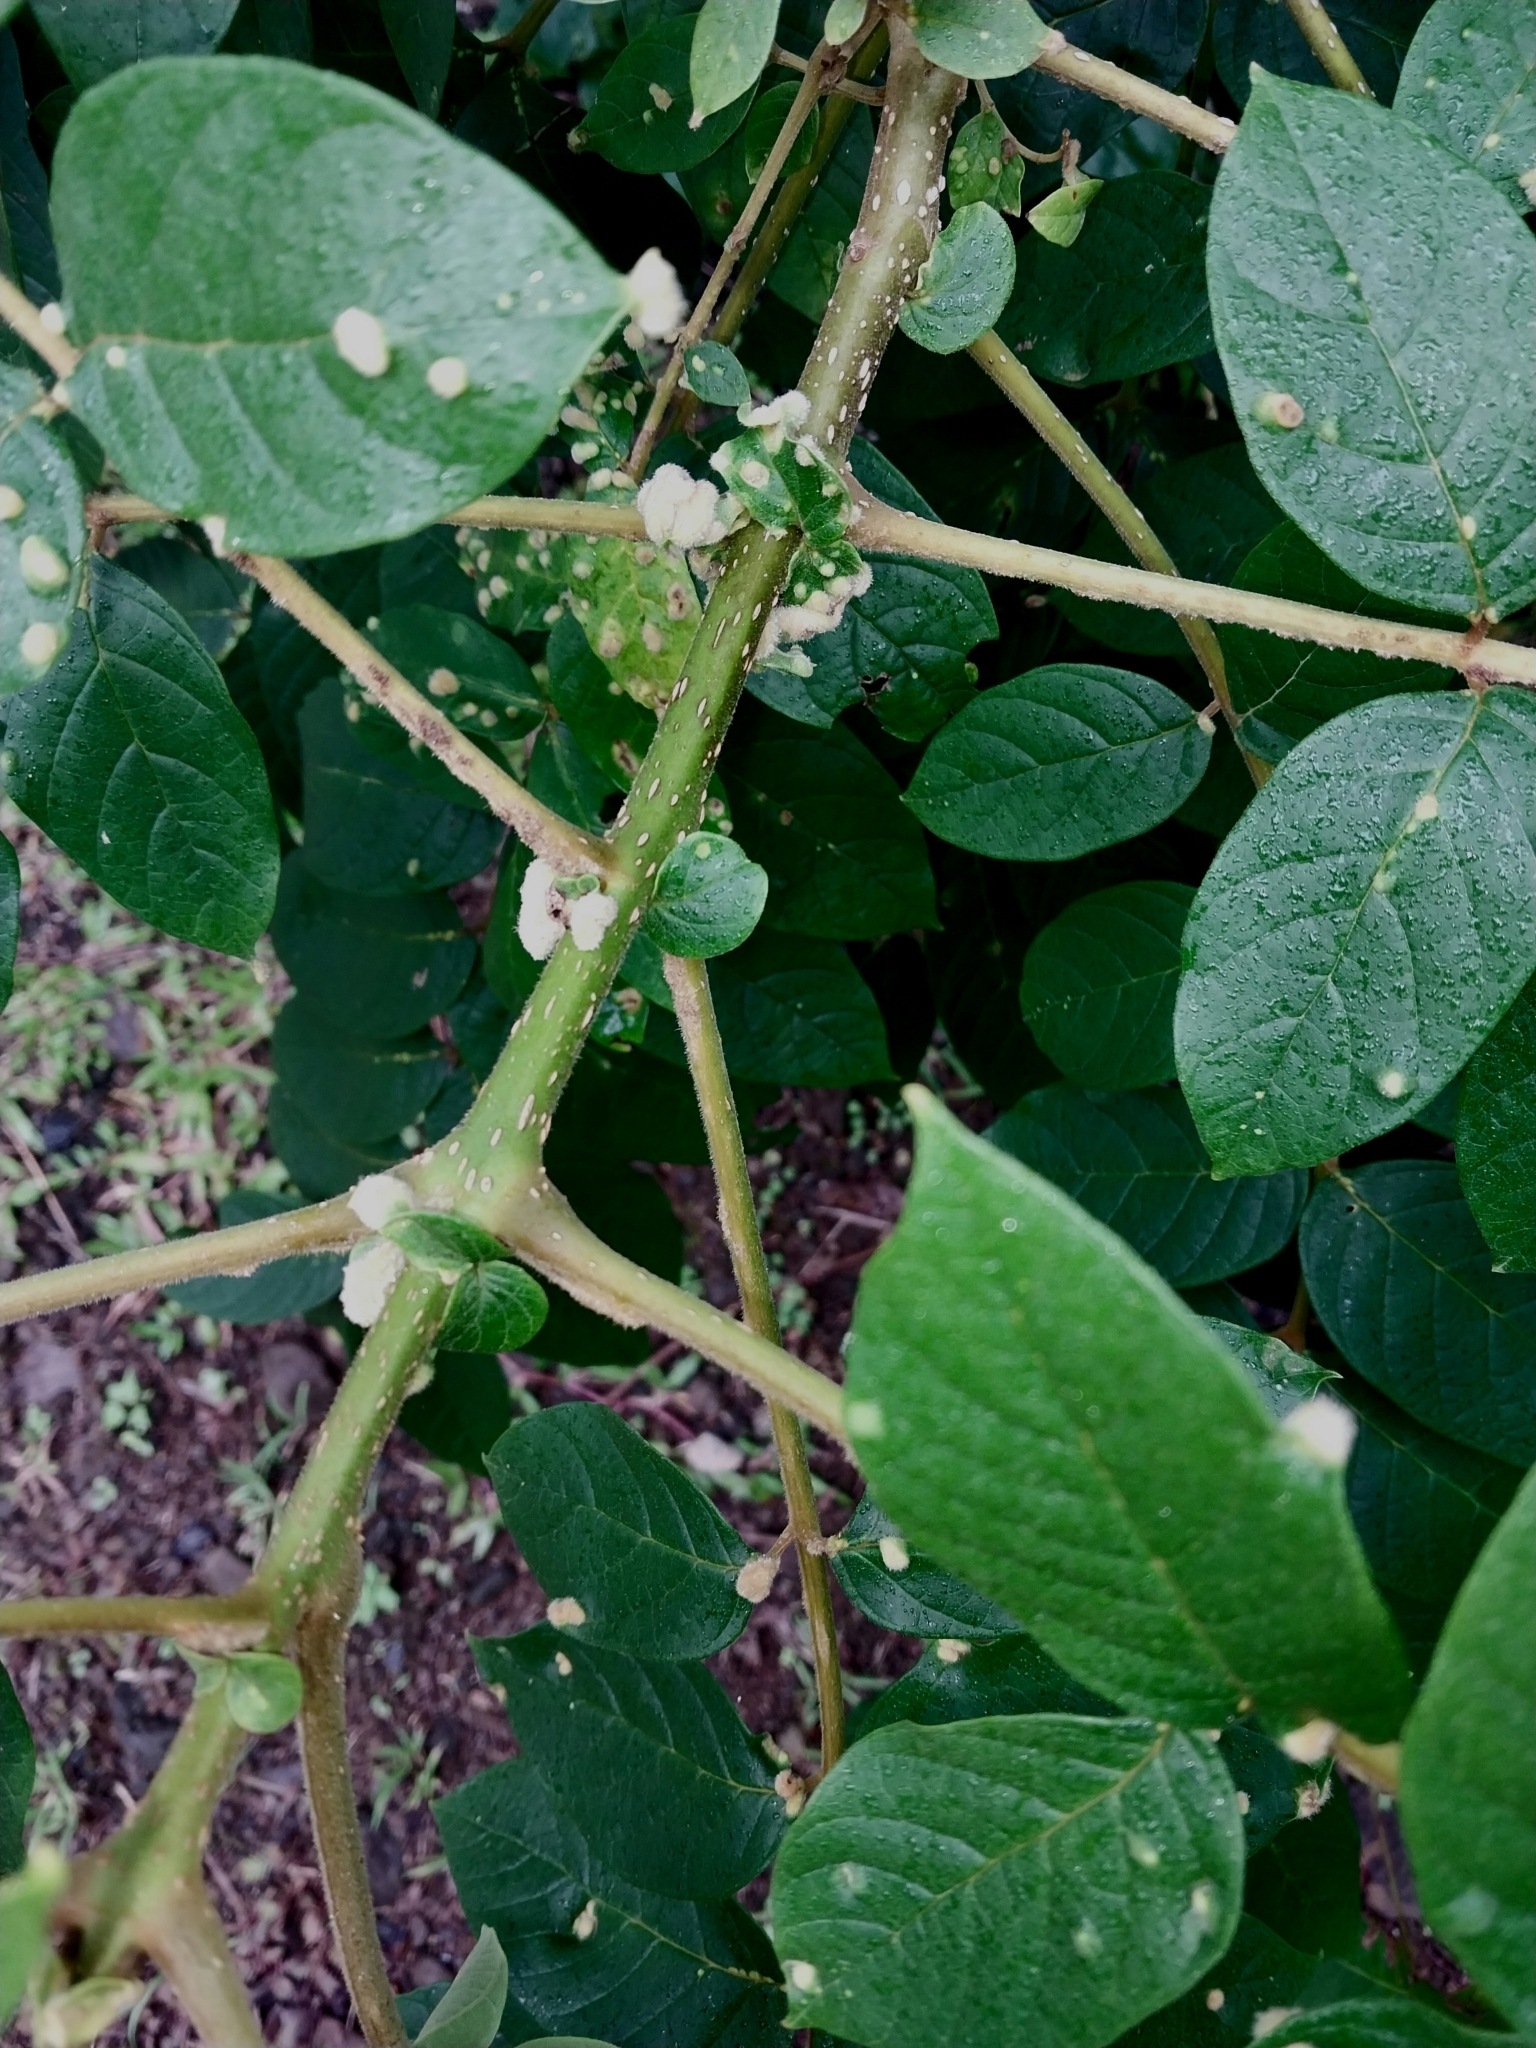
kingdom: Animalia
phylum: Arthropoda
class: Arachnida
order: Trombidiformes
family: Eriophyidae
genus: Colomerus
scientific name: Colomerus spathodeae
